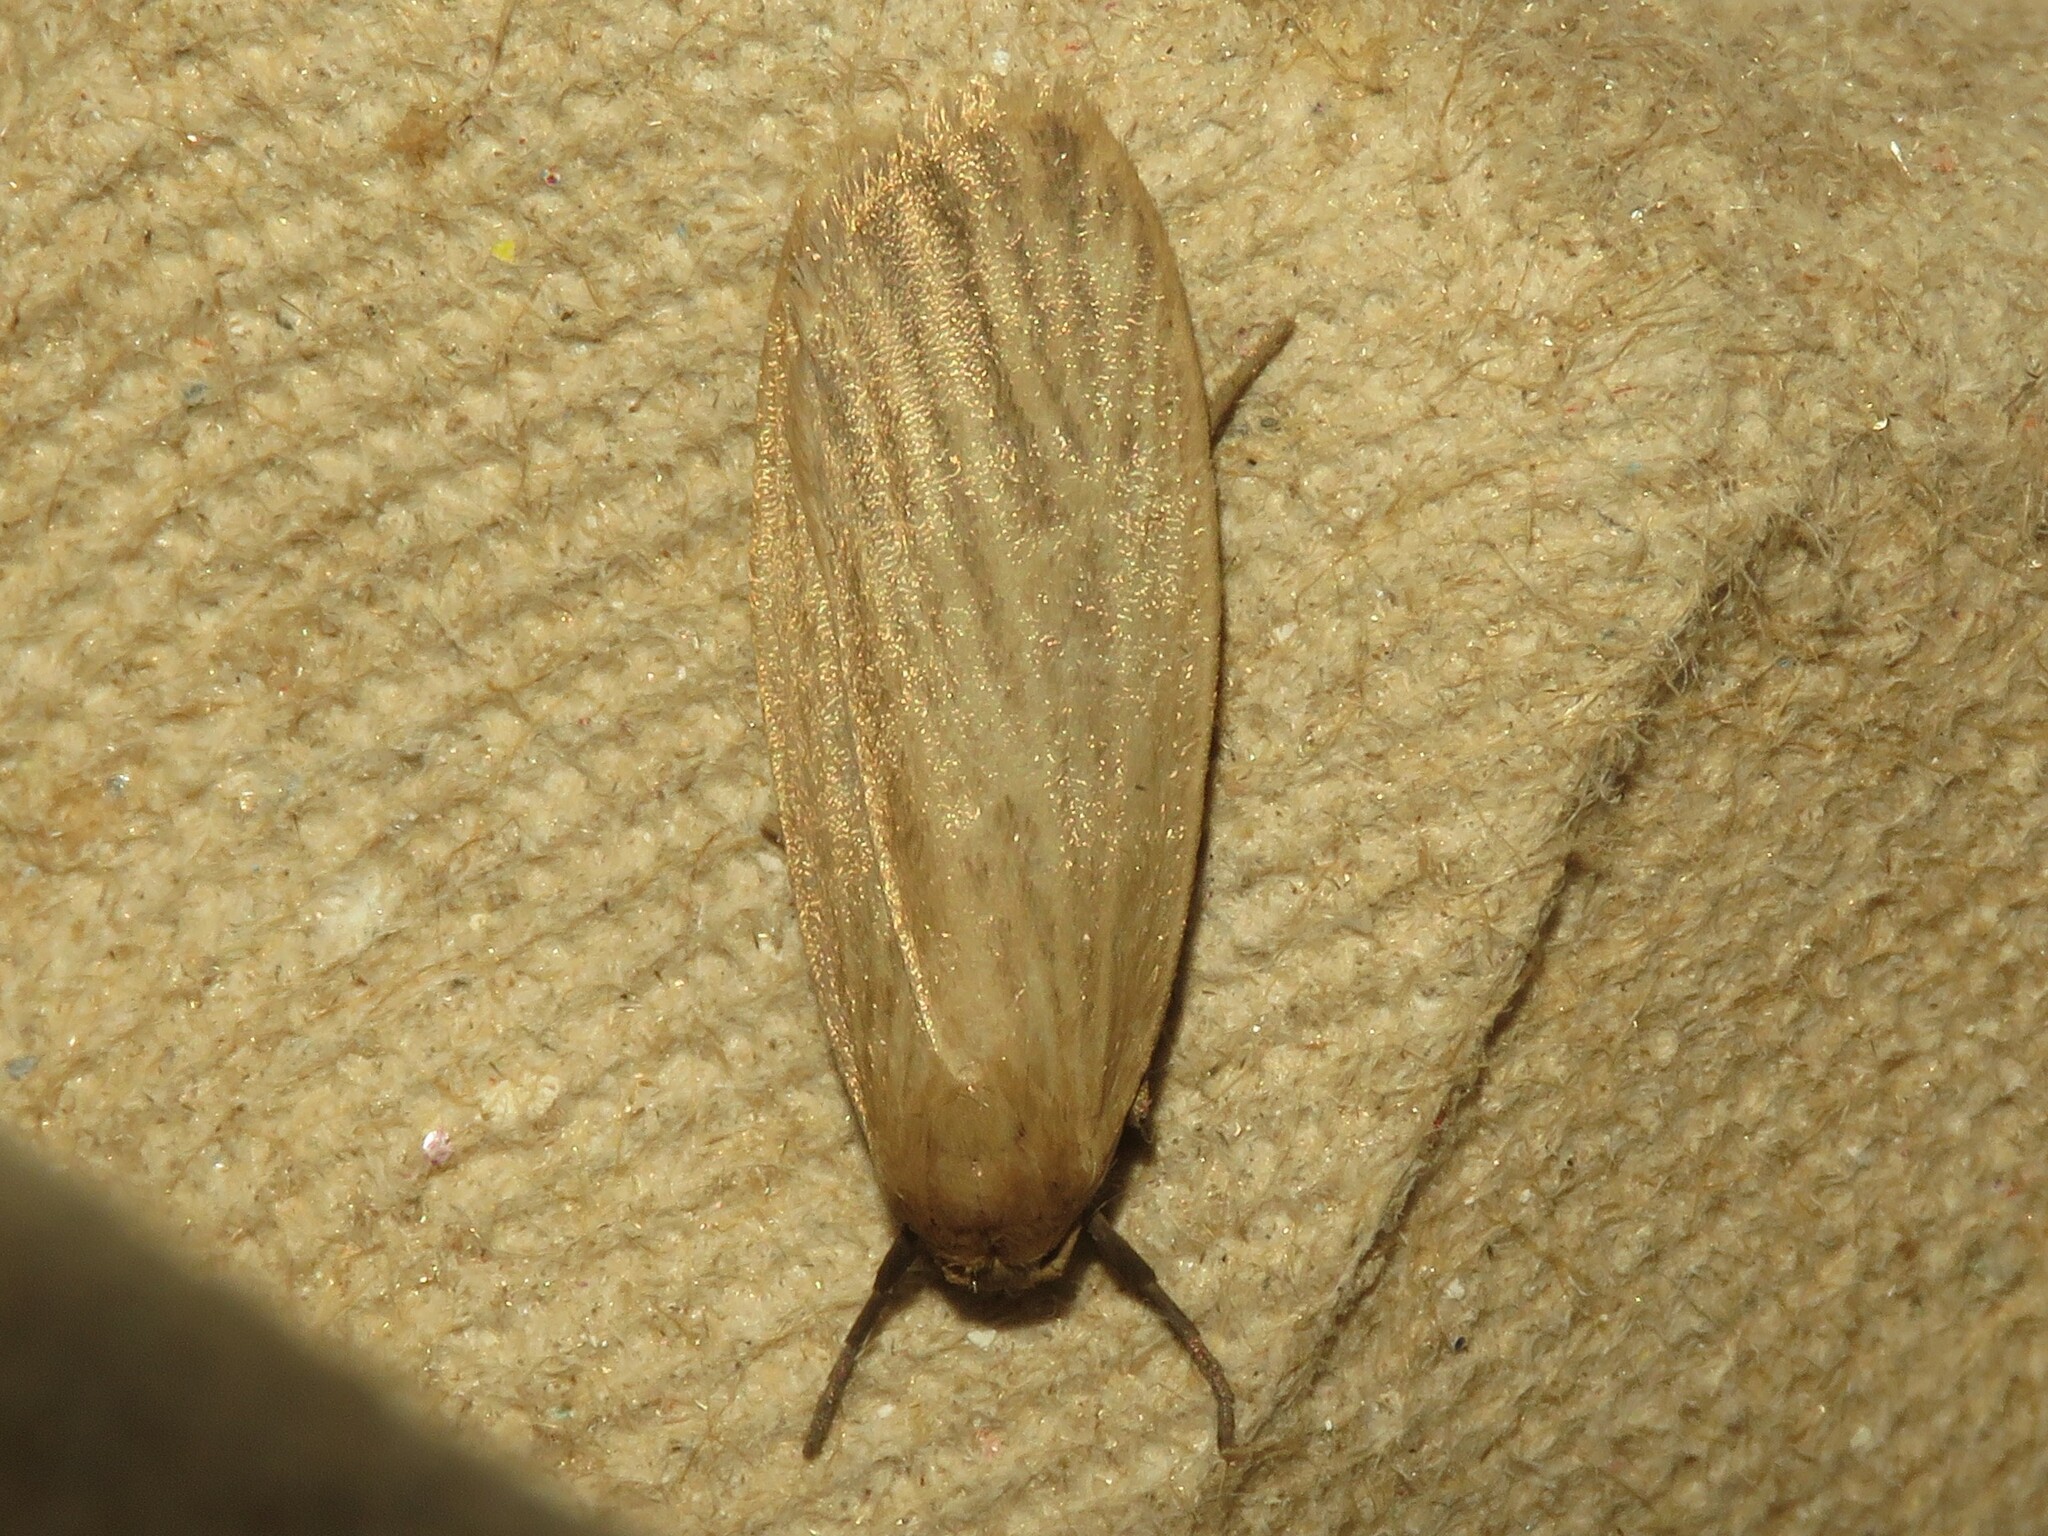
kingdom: Animalia
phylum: Arthropoda
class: Insecta
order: Lepidoptera
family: Erebidae
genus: Crambidia
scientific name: Crambidia pallida
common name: Pale lichen moth
